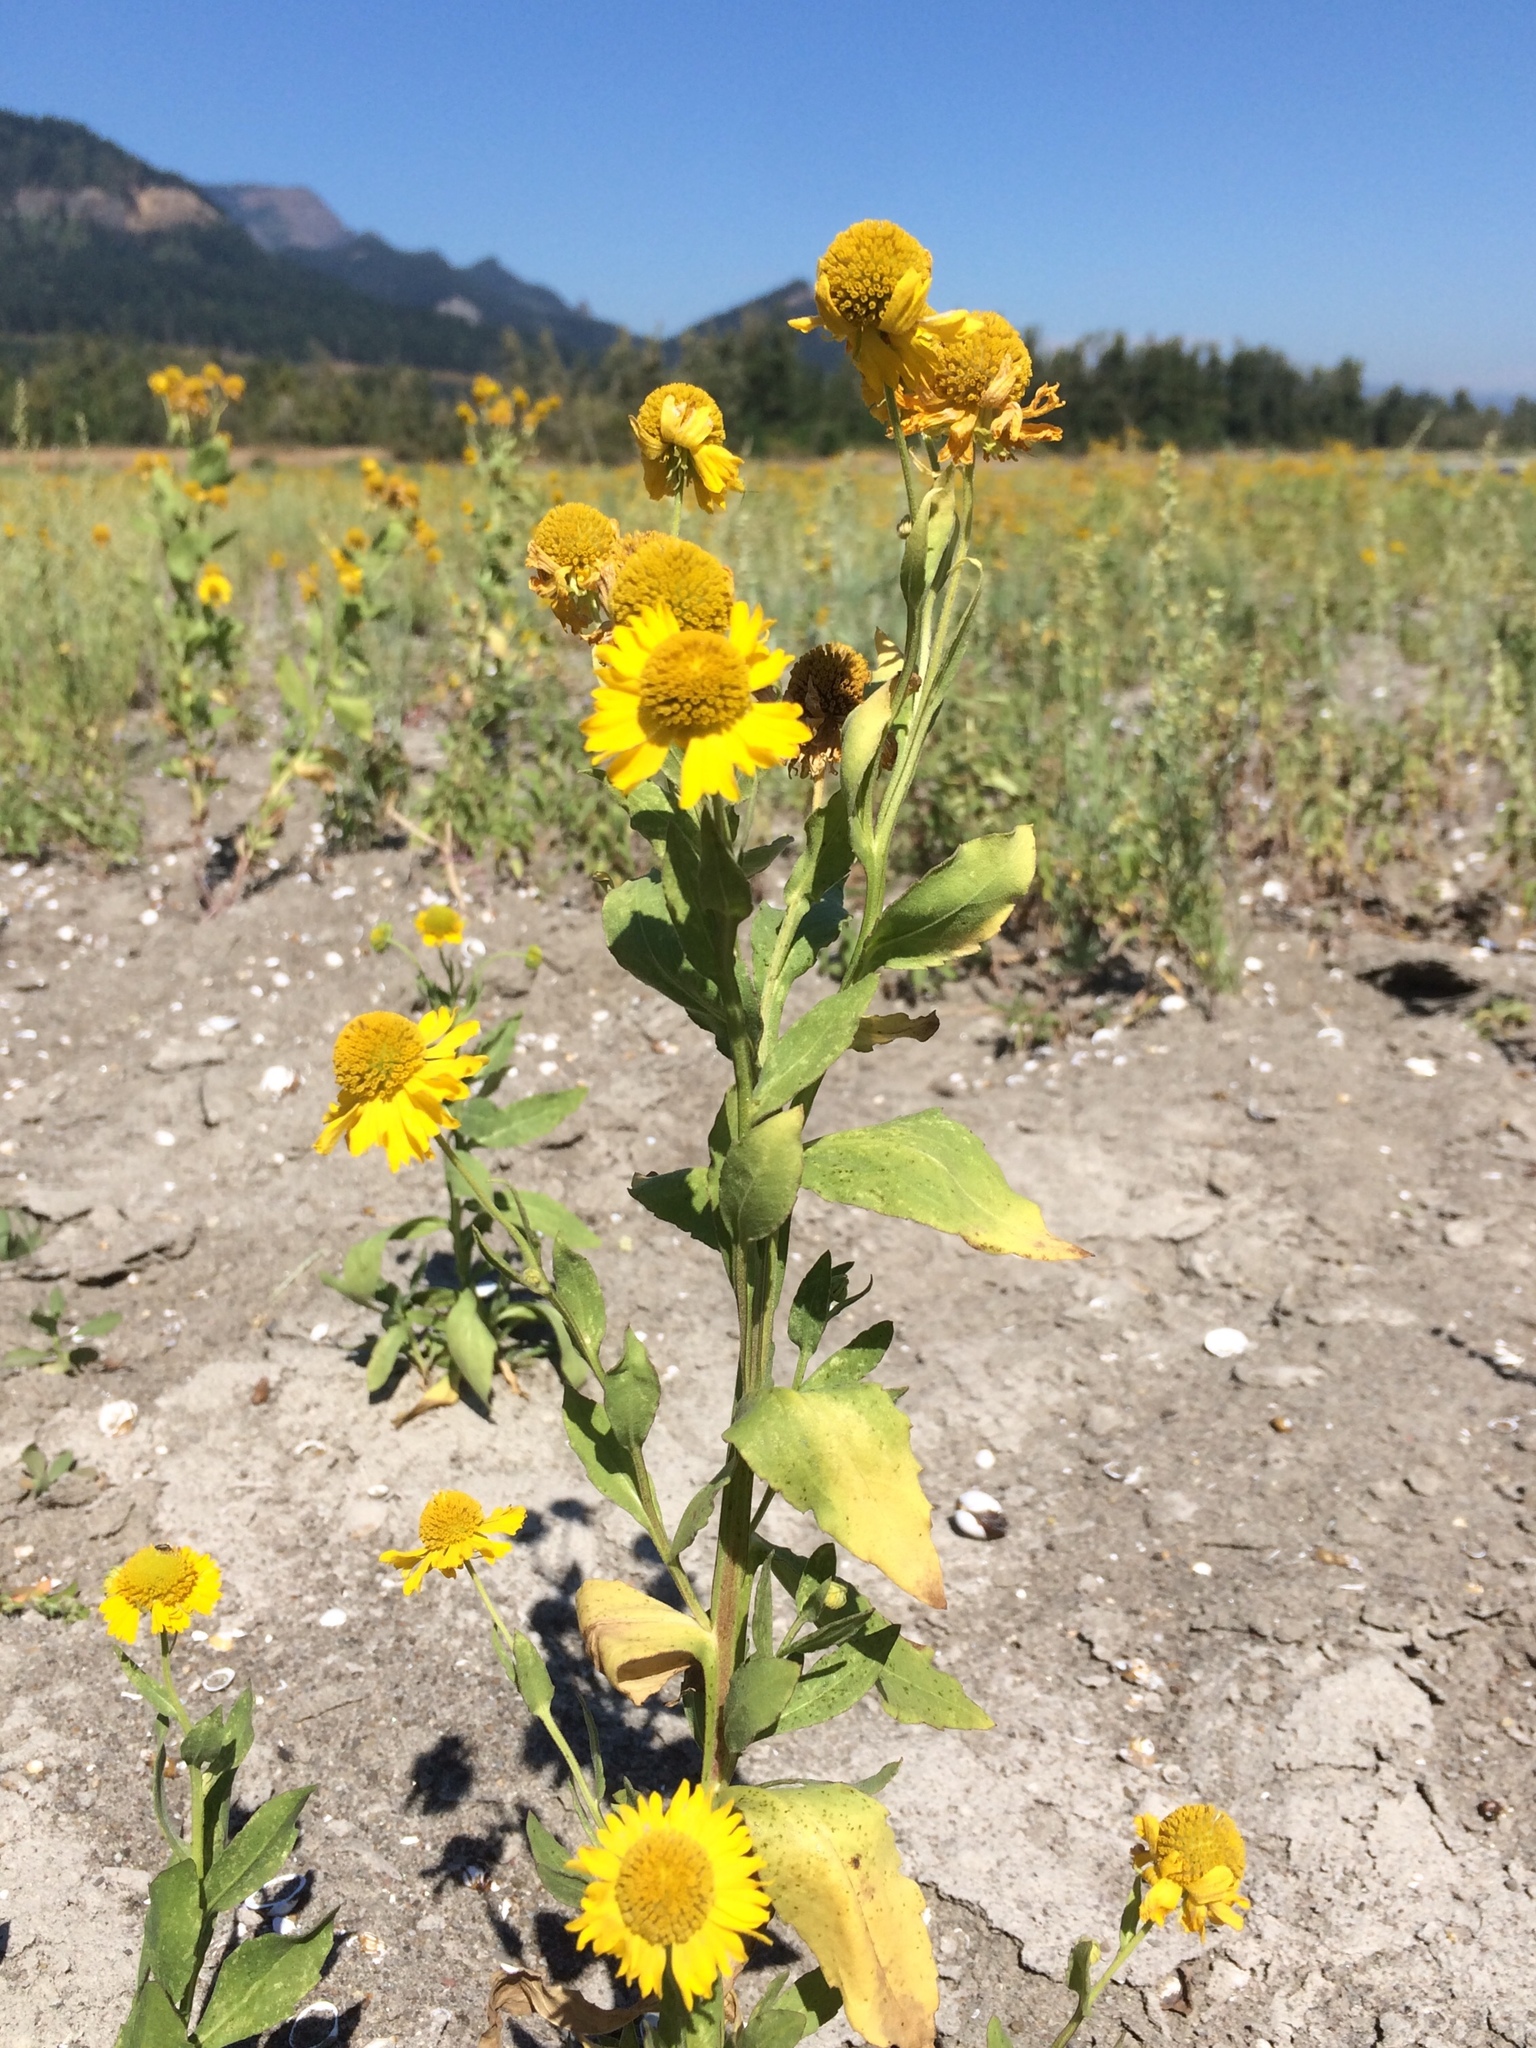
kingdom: Plantae
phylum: Tracheophyta
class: Magnoliopsida
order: Asterales
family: Asteraceae
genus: Helenium
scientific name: Helenium autumnale
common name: Sneezeweed
